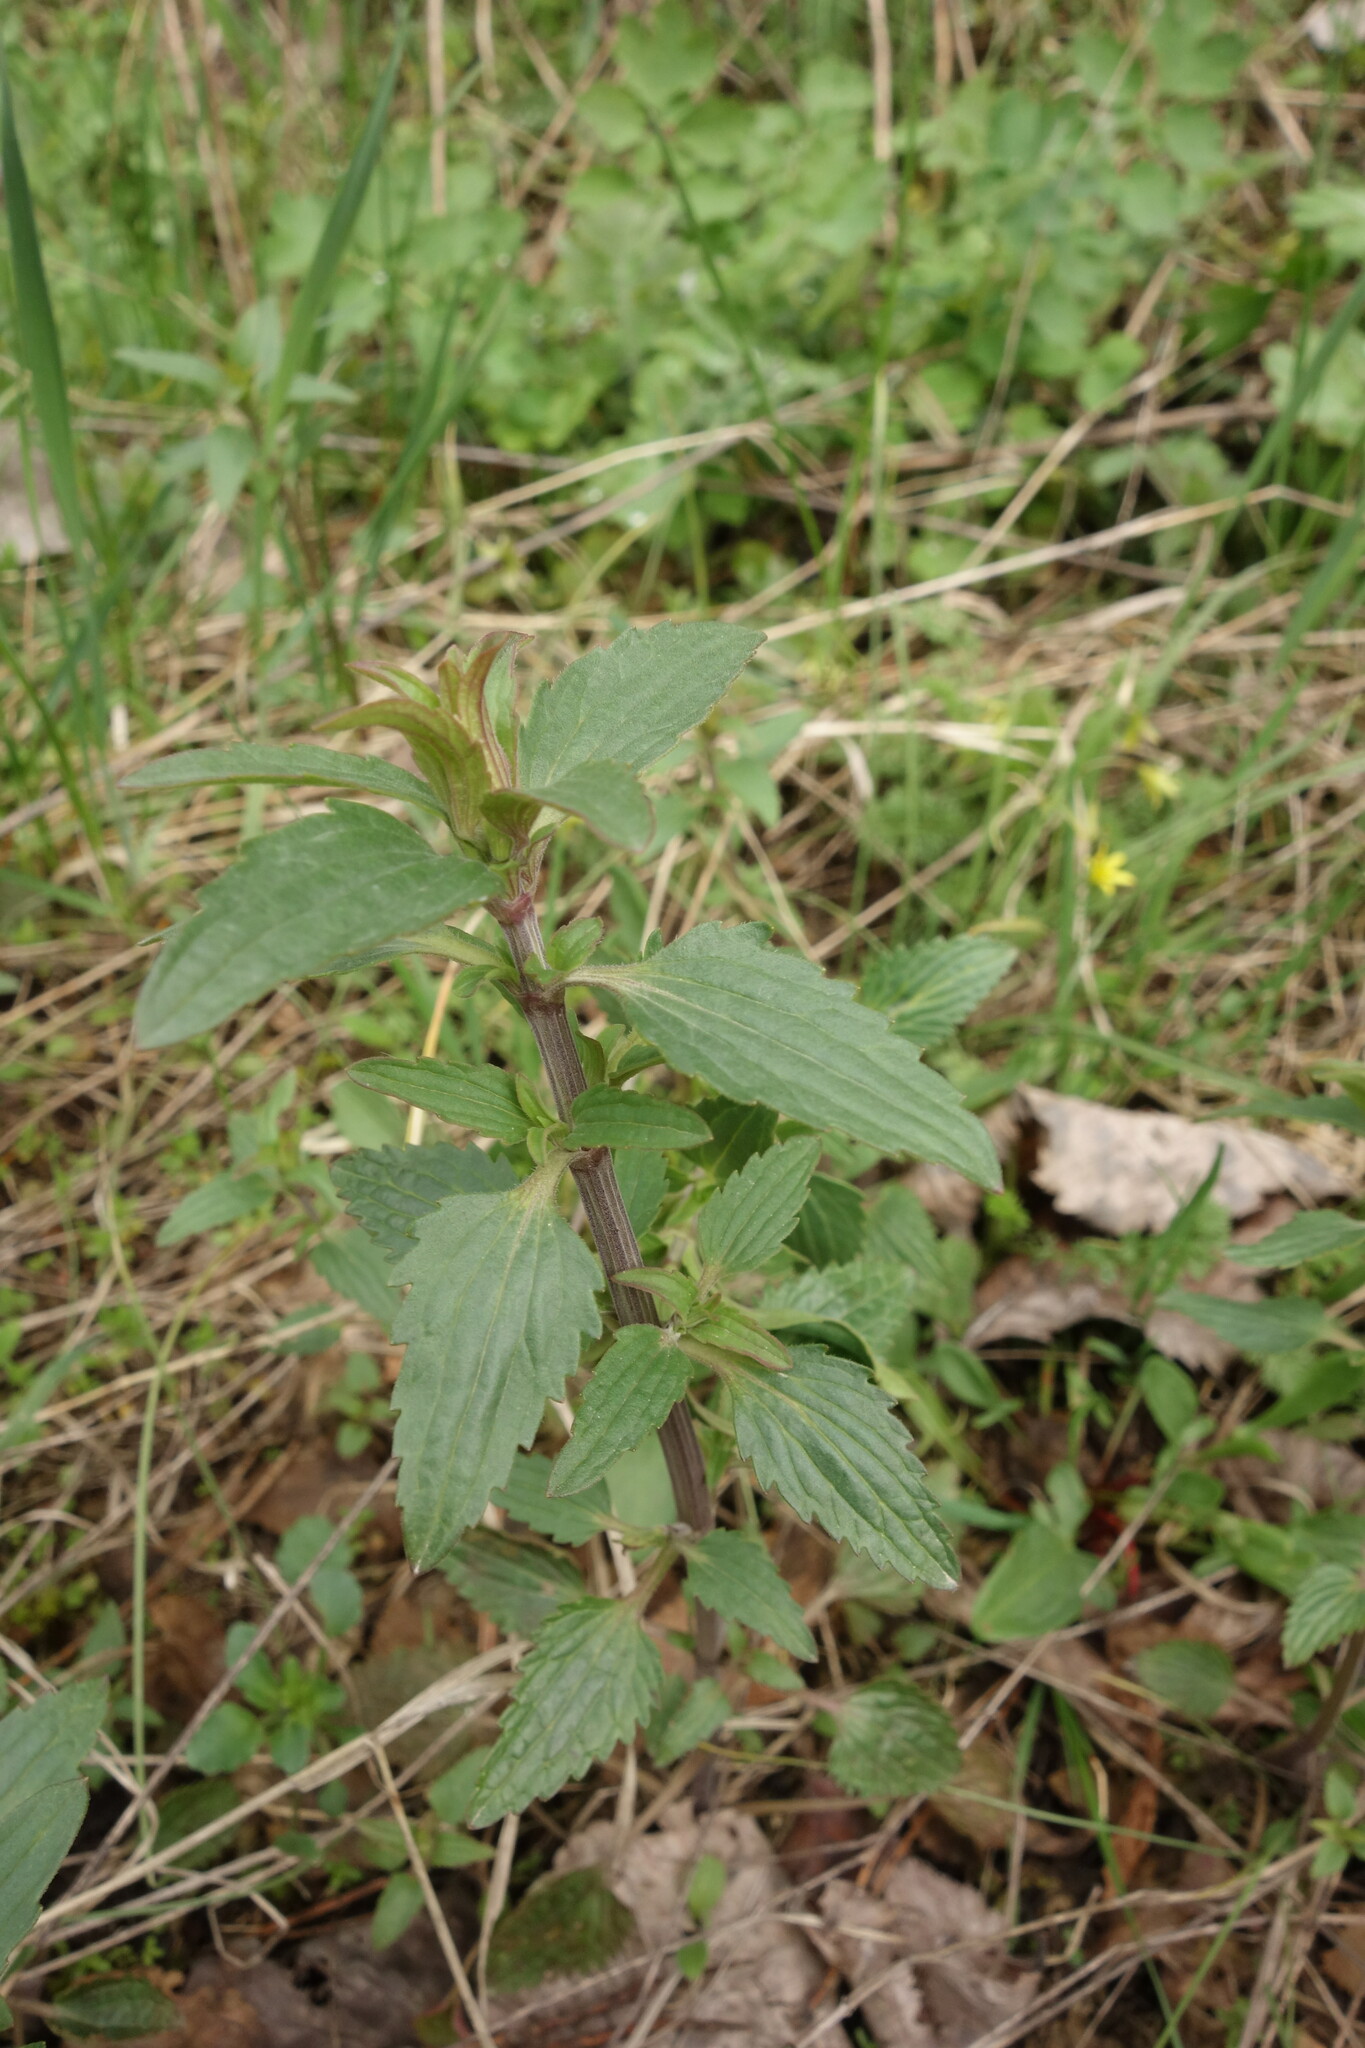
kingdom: Plantae
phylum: Tracheophyta
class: Magnoliopsida
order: Lamiales
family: Lamiaceae
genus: Dracocephalum
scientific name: Dracocephalum thymiflorum
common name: Thymeleaf dragonhead
